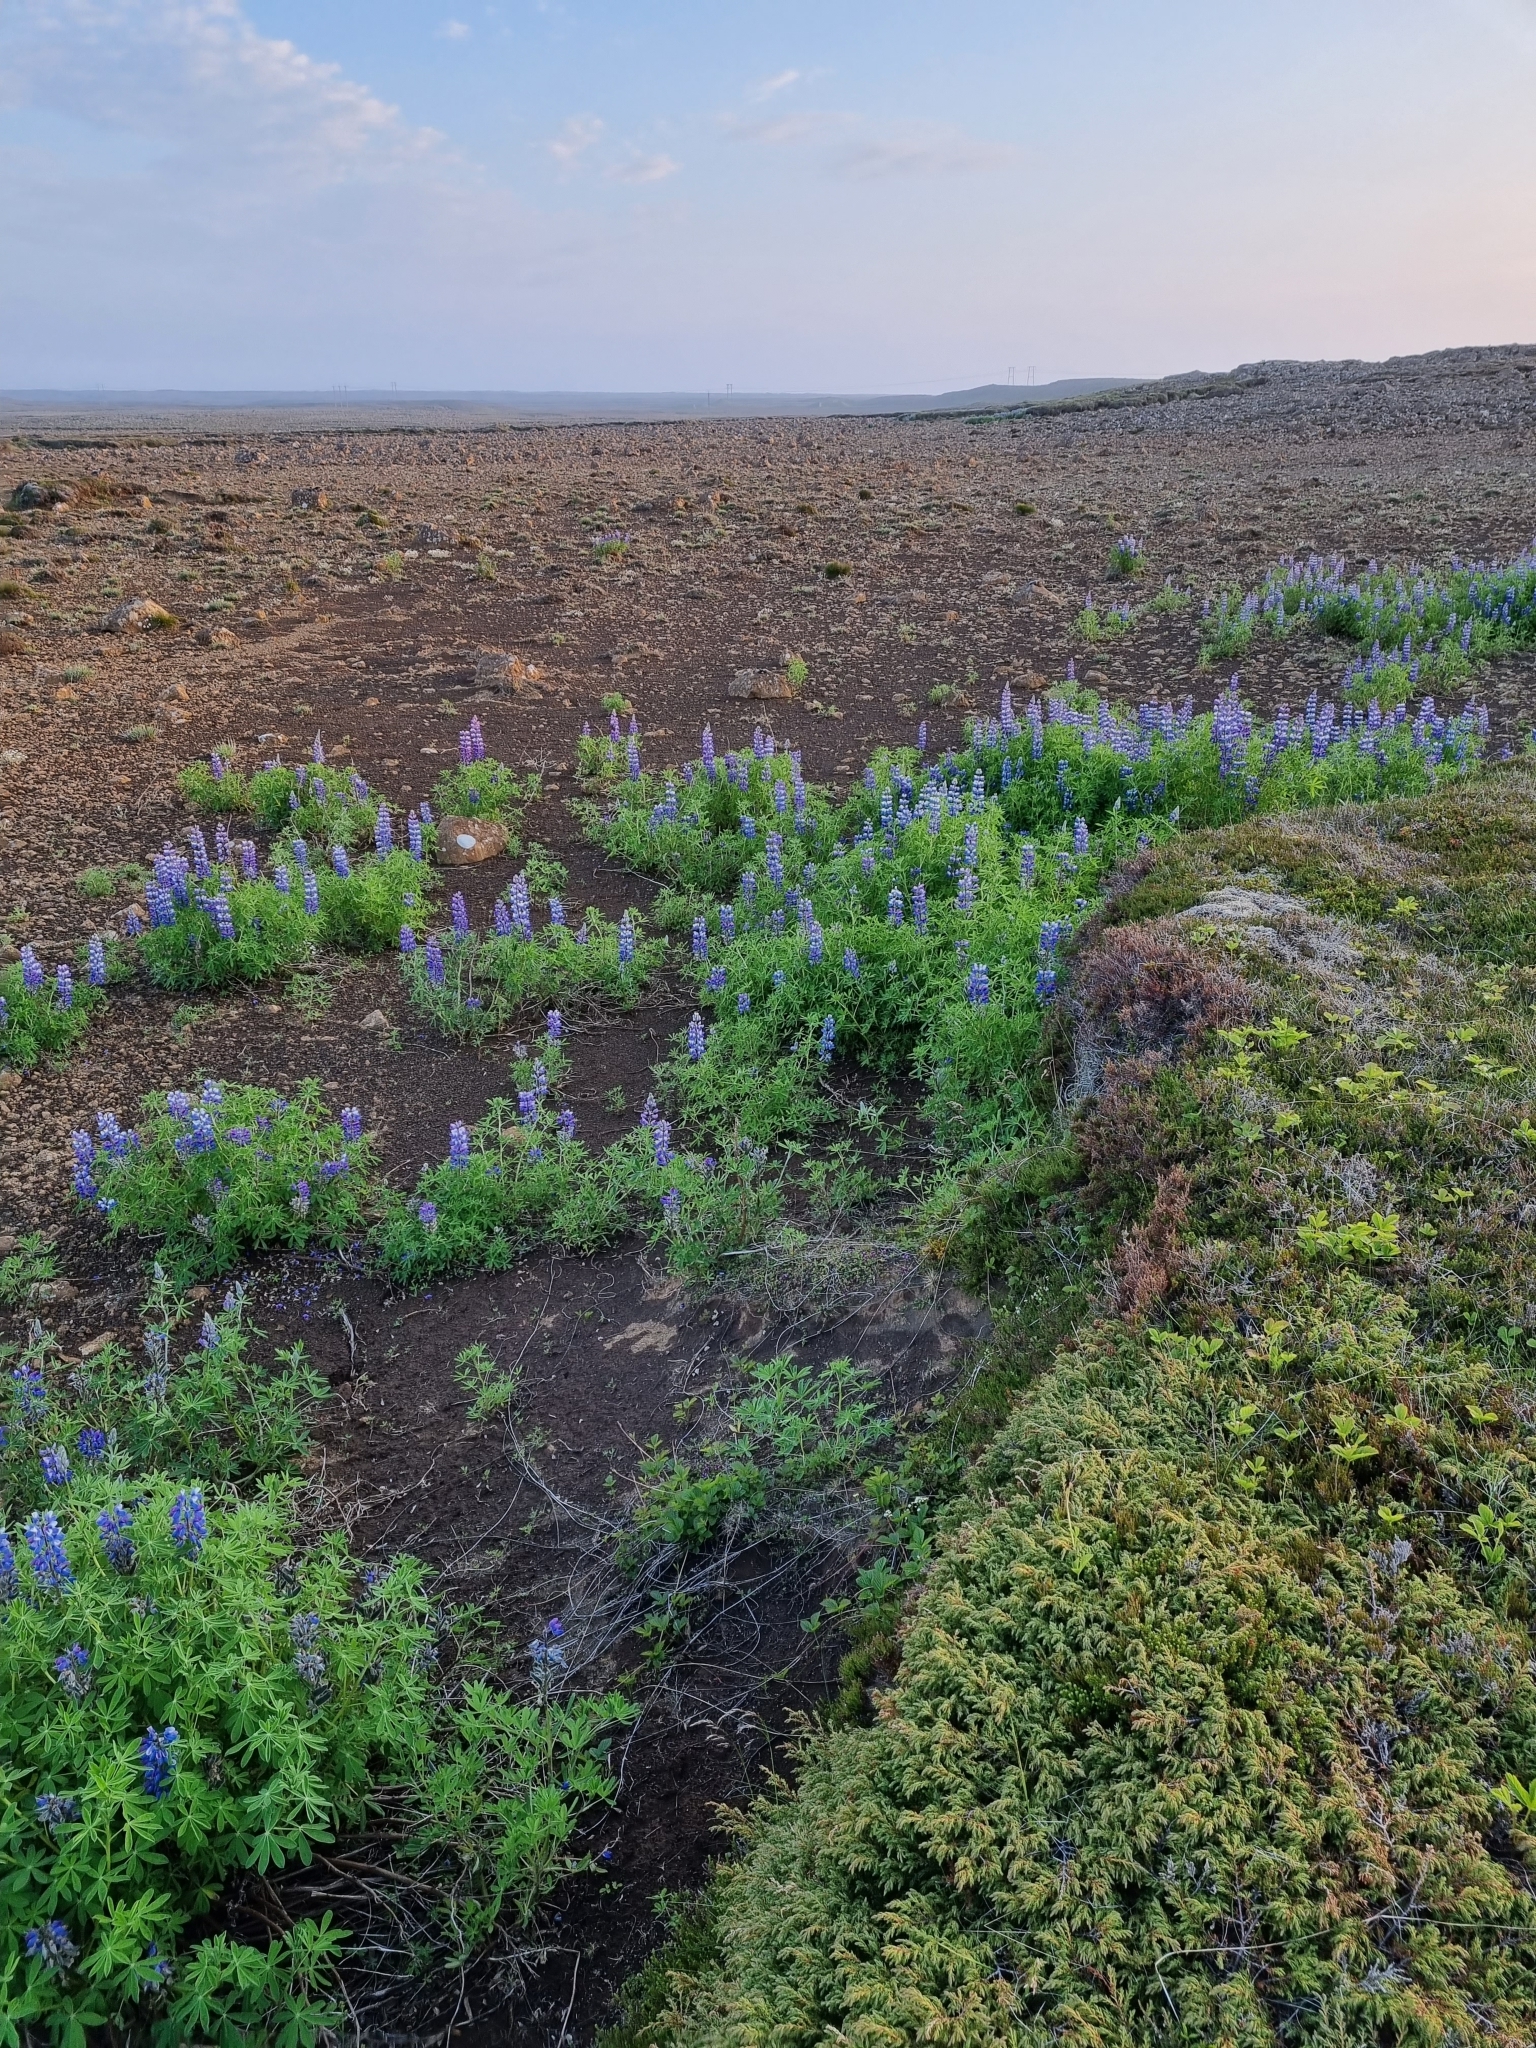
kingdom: Plantae
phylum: Tracheophyta
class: Magnoliopsida
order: Fabales
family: Fabaceae
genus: Lupinus
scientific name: Lupinus nootkatensis
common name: Nootka lupine
